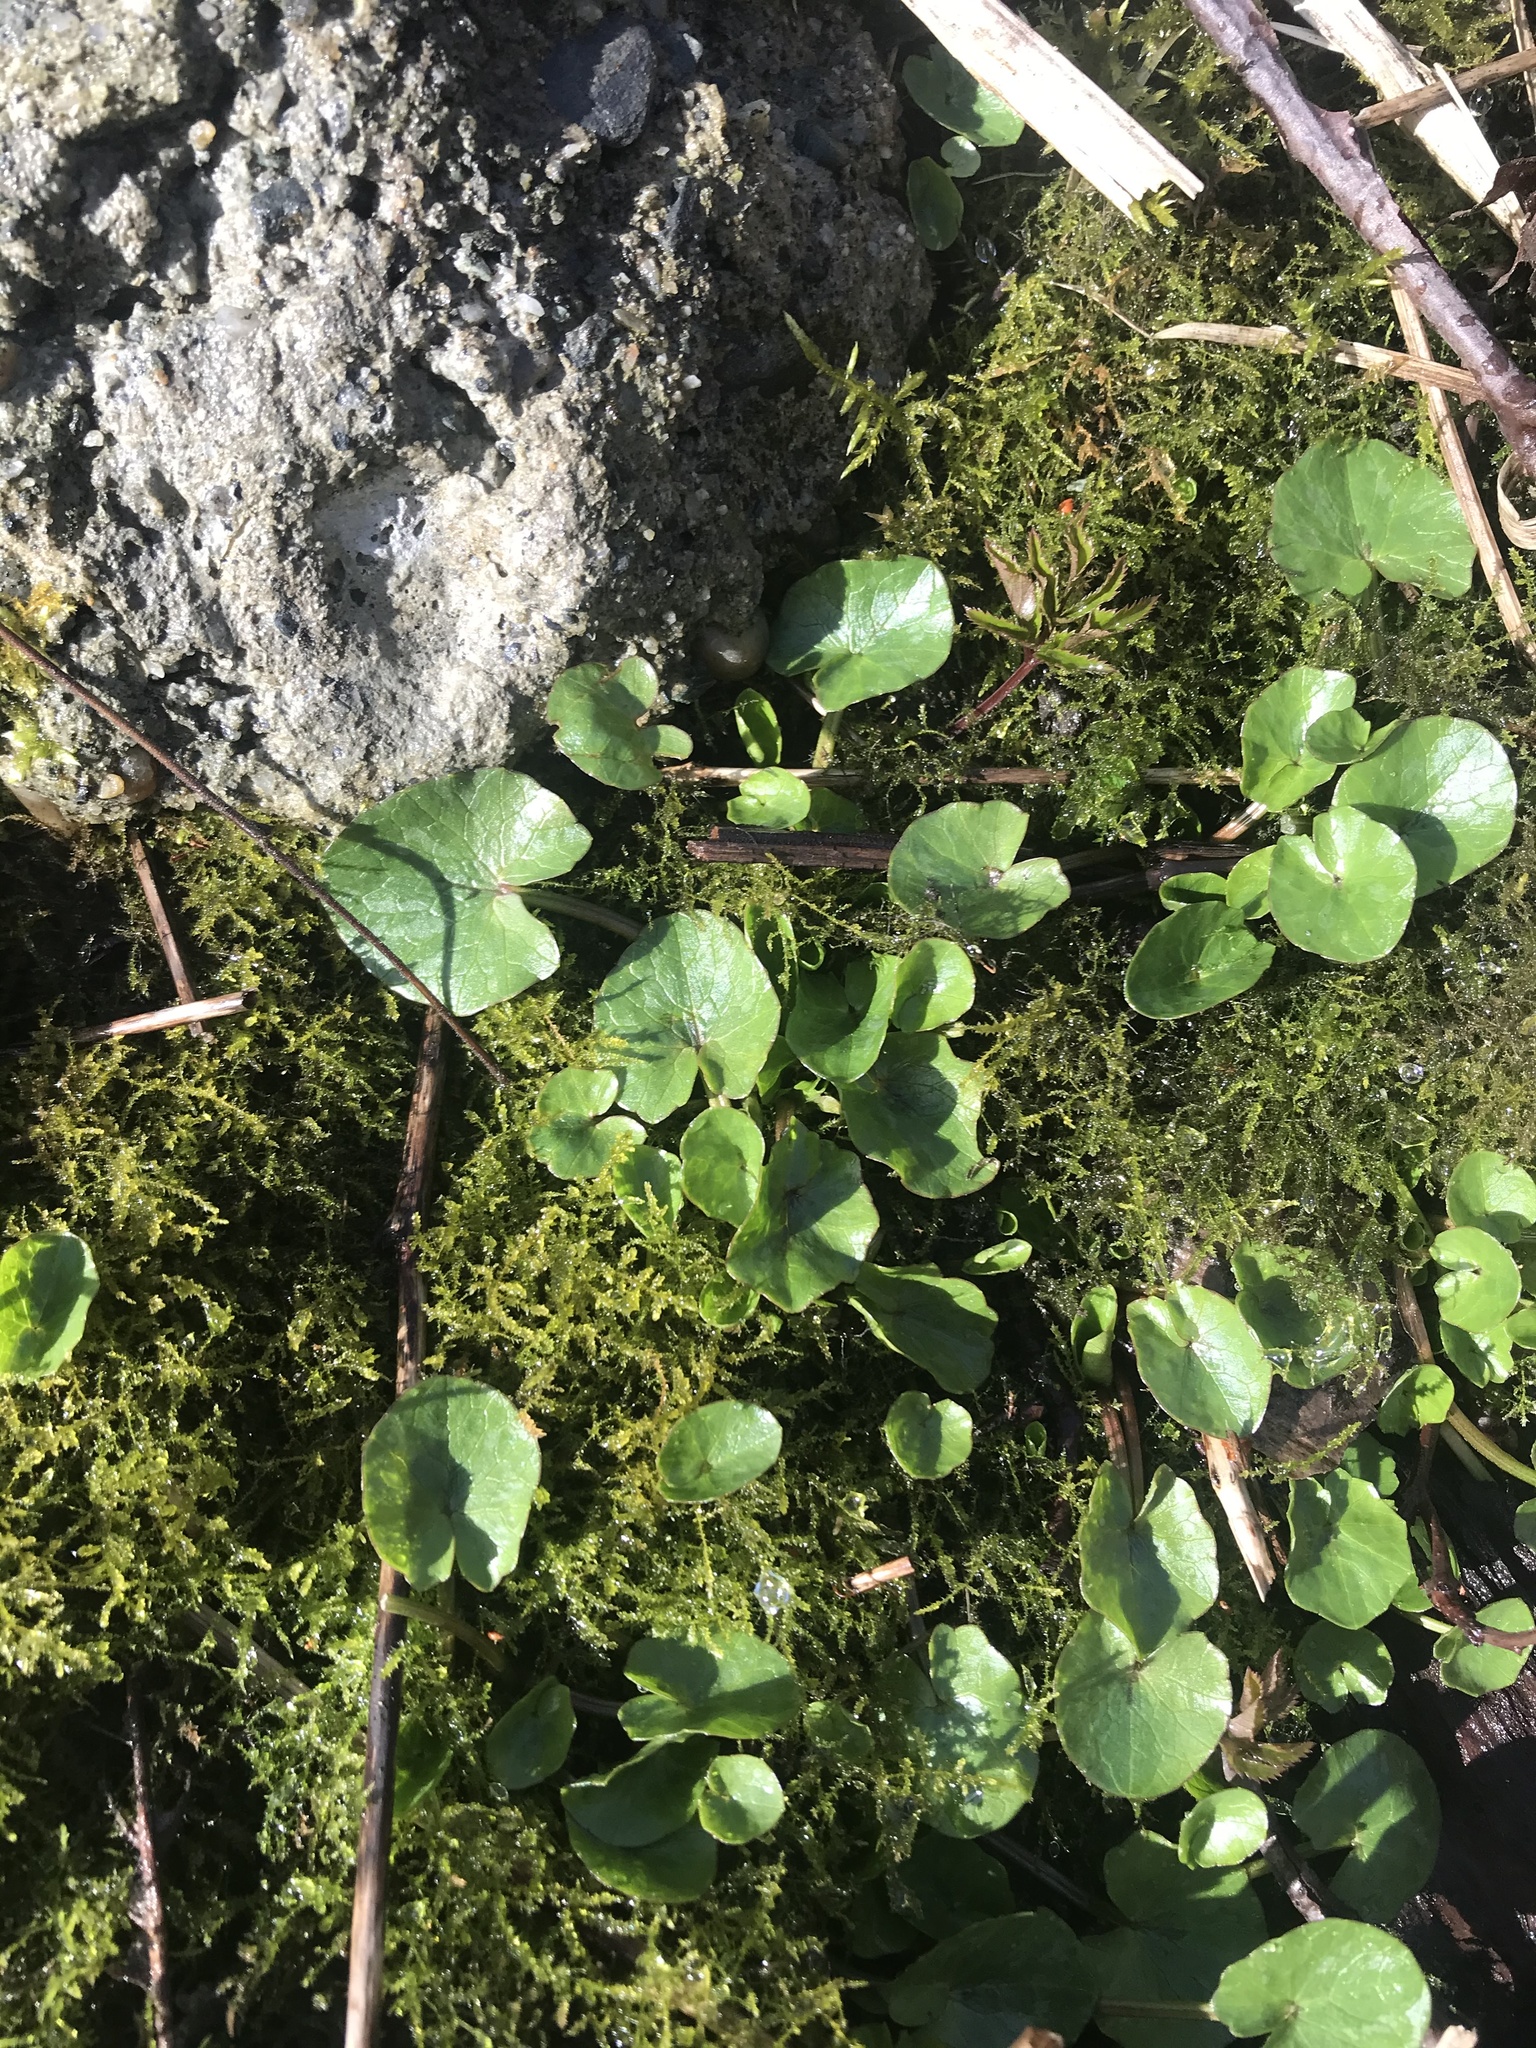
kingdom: Plantae
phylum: Tracheophyta
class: Magnoliopsida
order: Ranunculales
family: Ranunculaceae
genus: Ficaria
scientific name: Ficaria verna
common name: Lesser celandine
